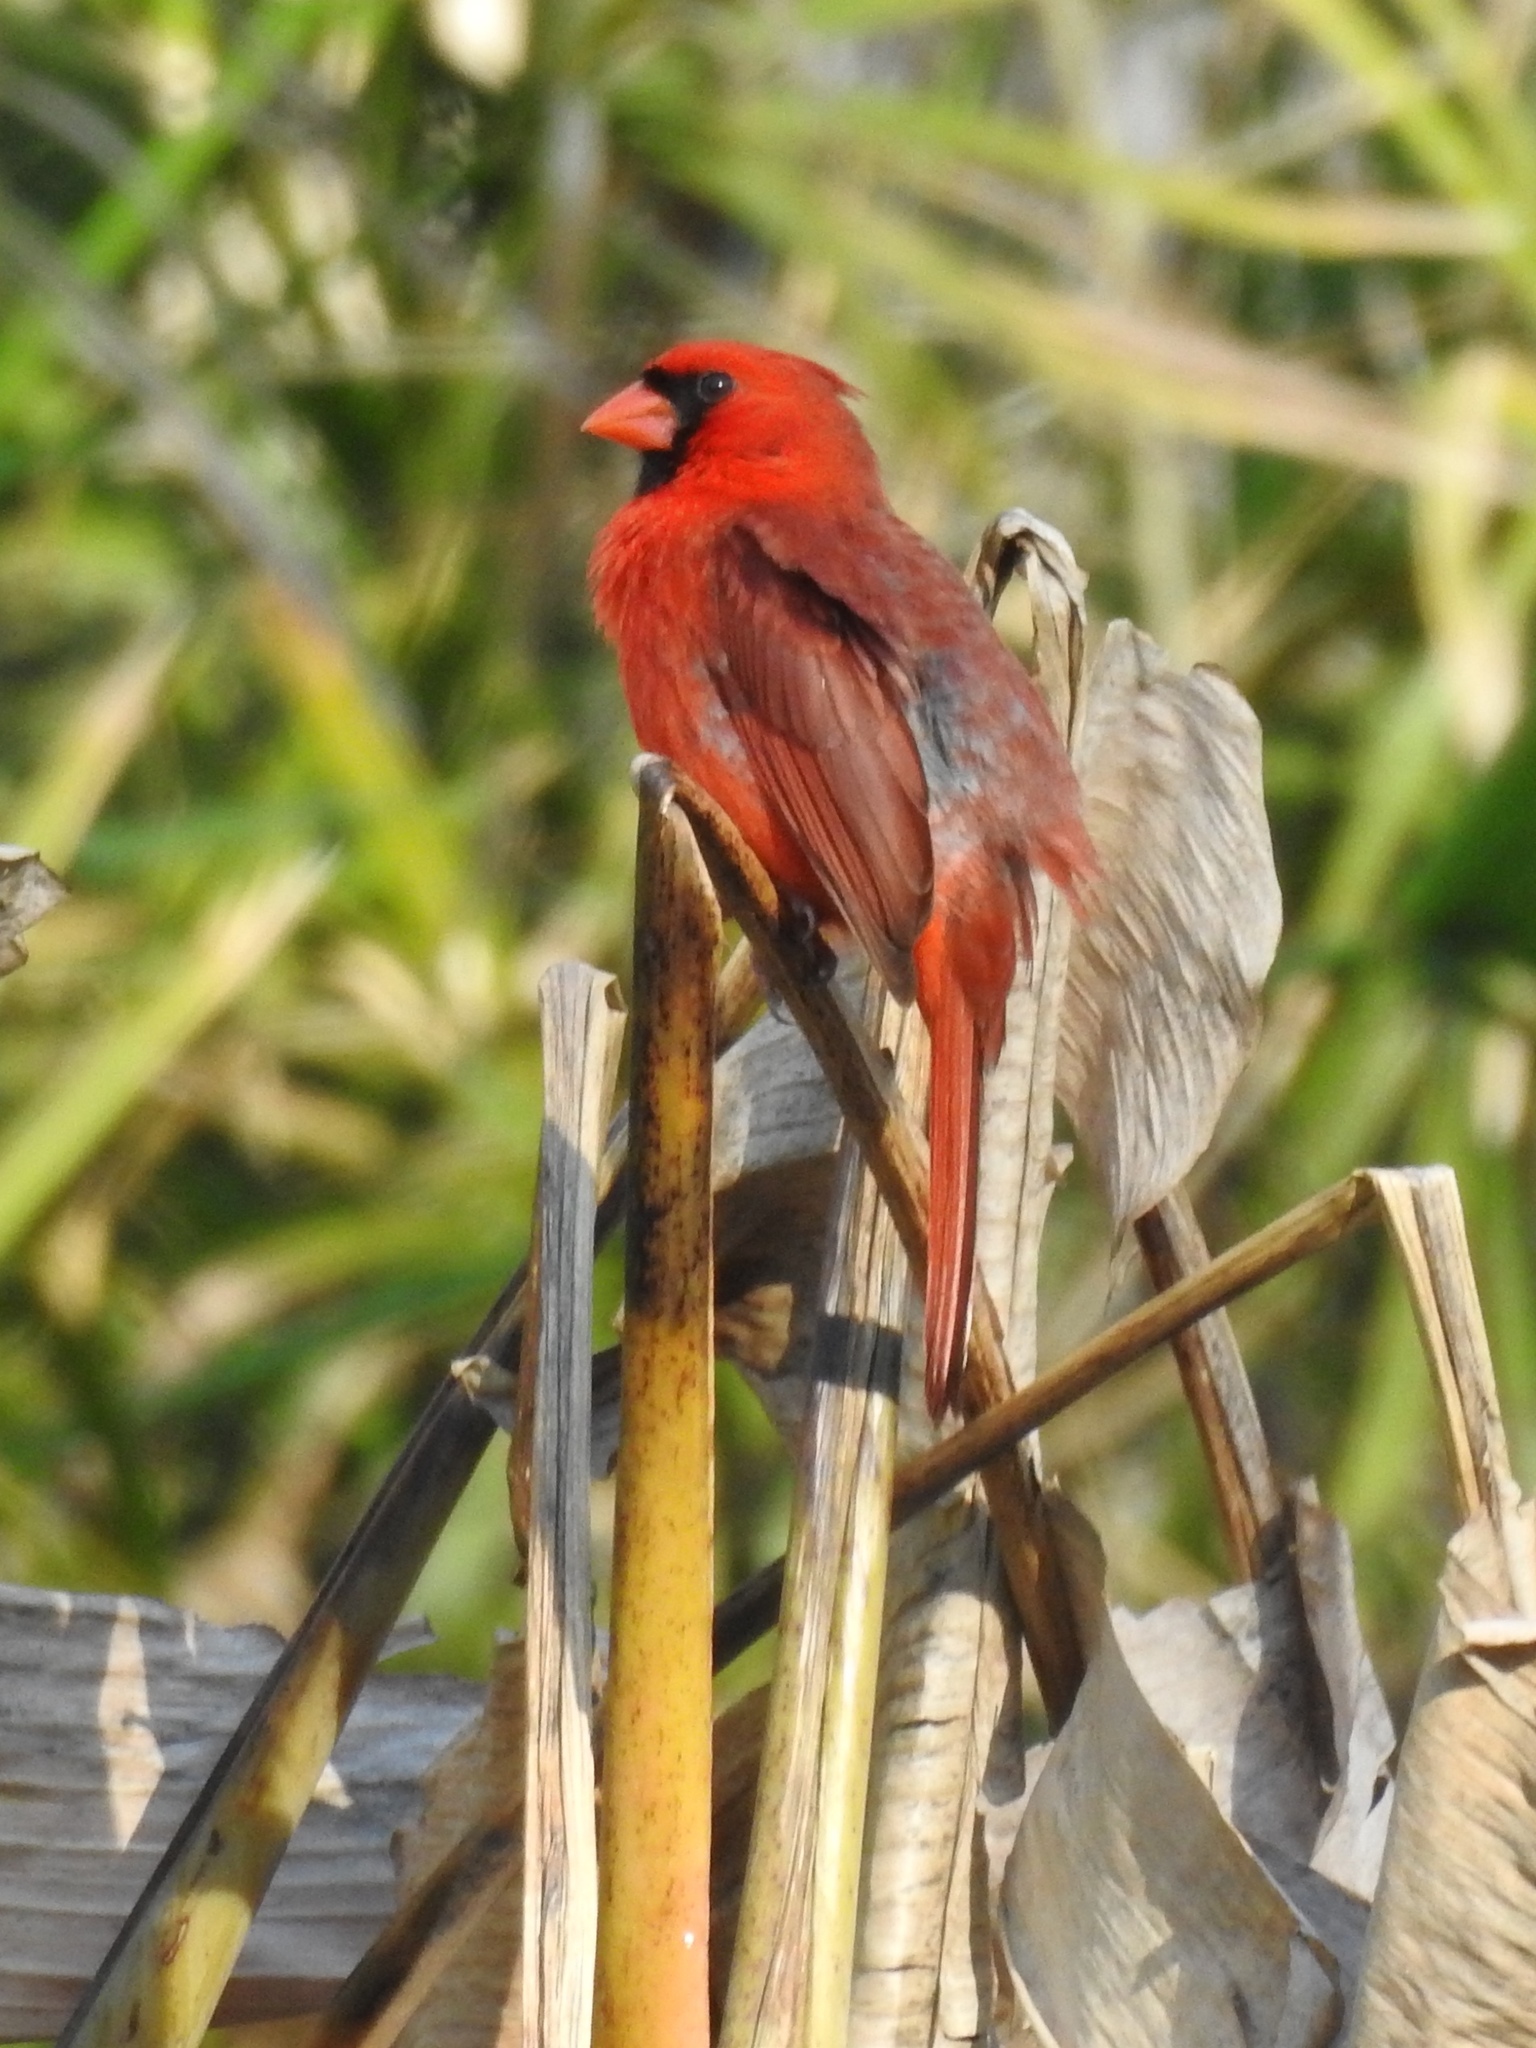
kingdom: Animalia
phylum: Chordata
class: Aves
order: Passeriformes
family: Cardinalidae
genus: Cardinalis
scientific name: Cardinalis cardinalis
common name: Northern cardinal
